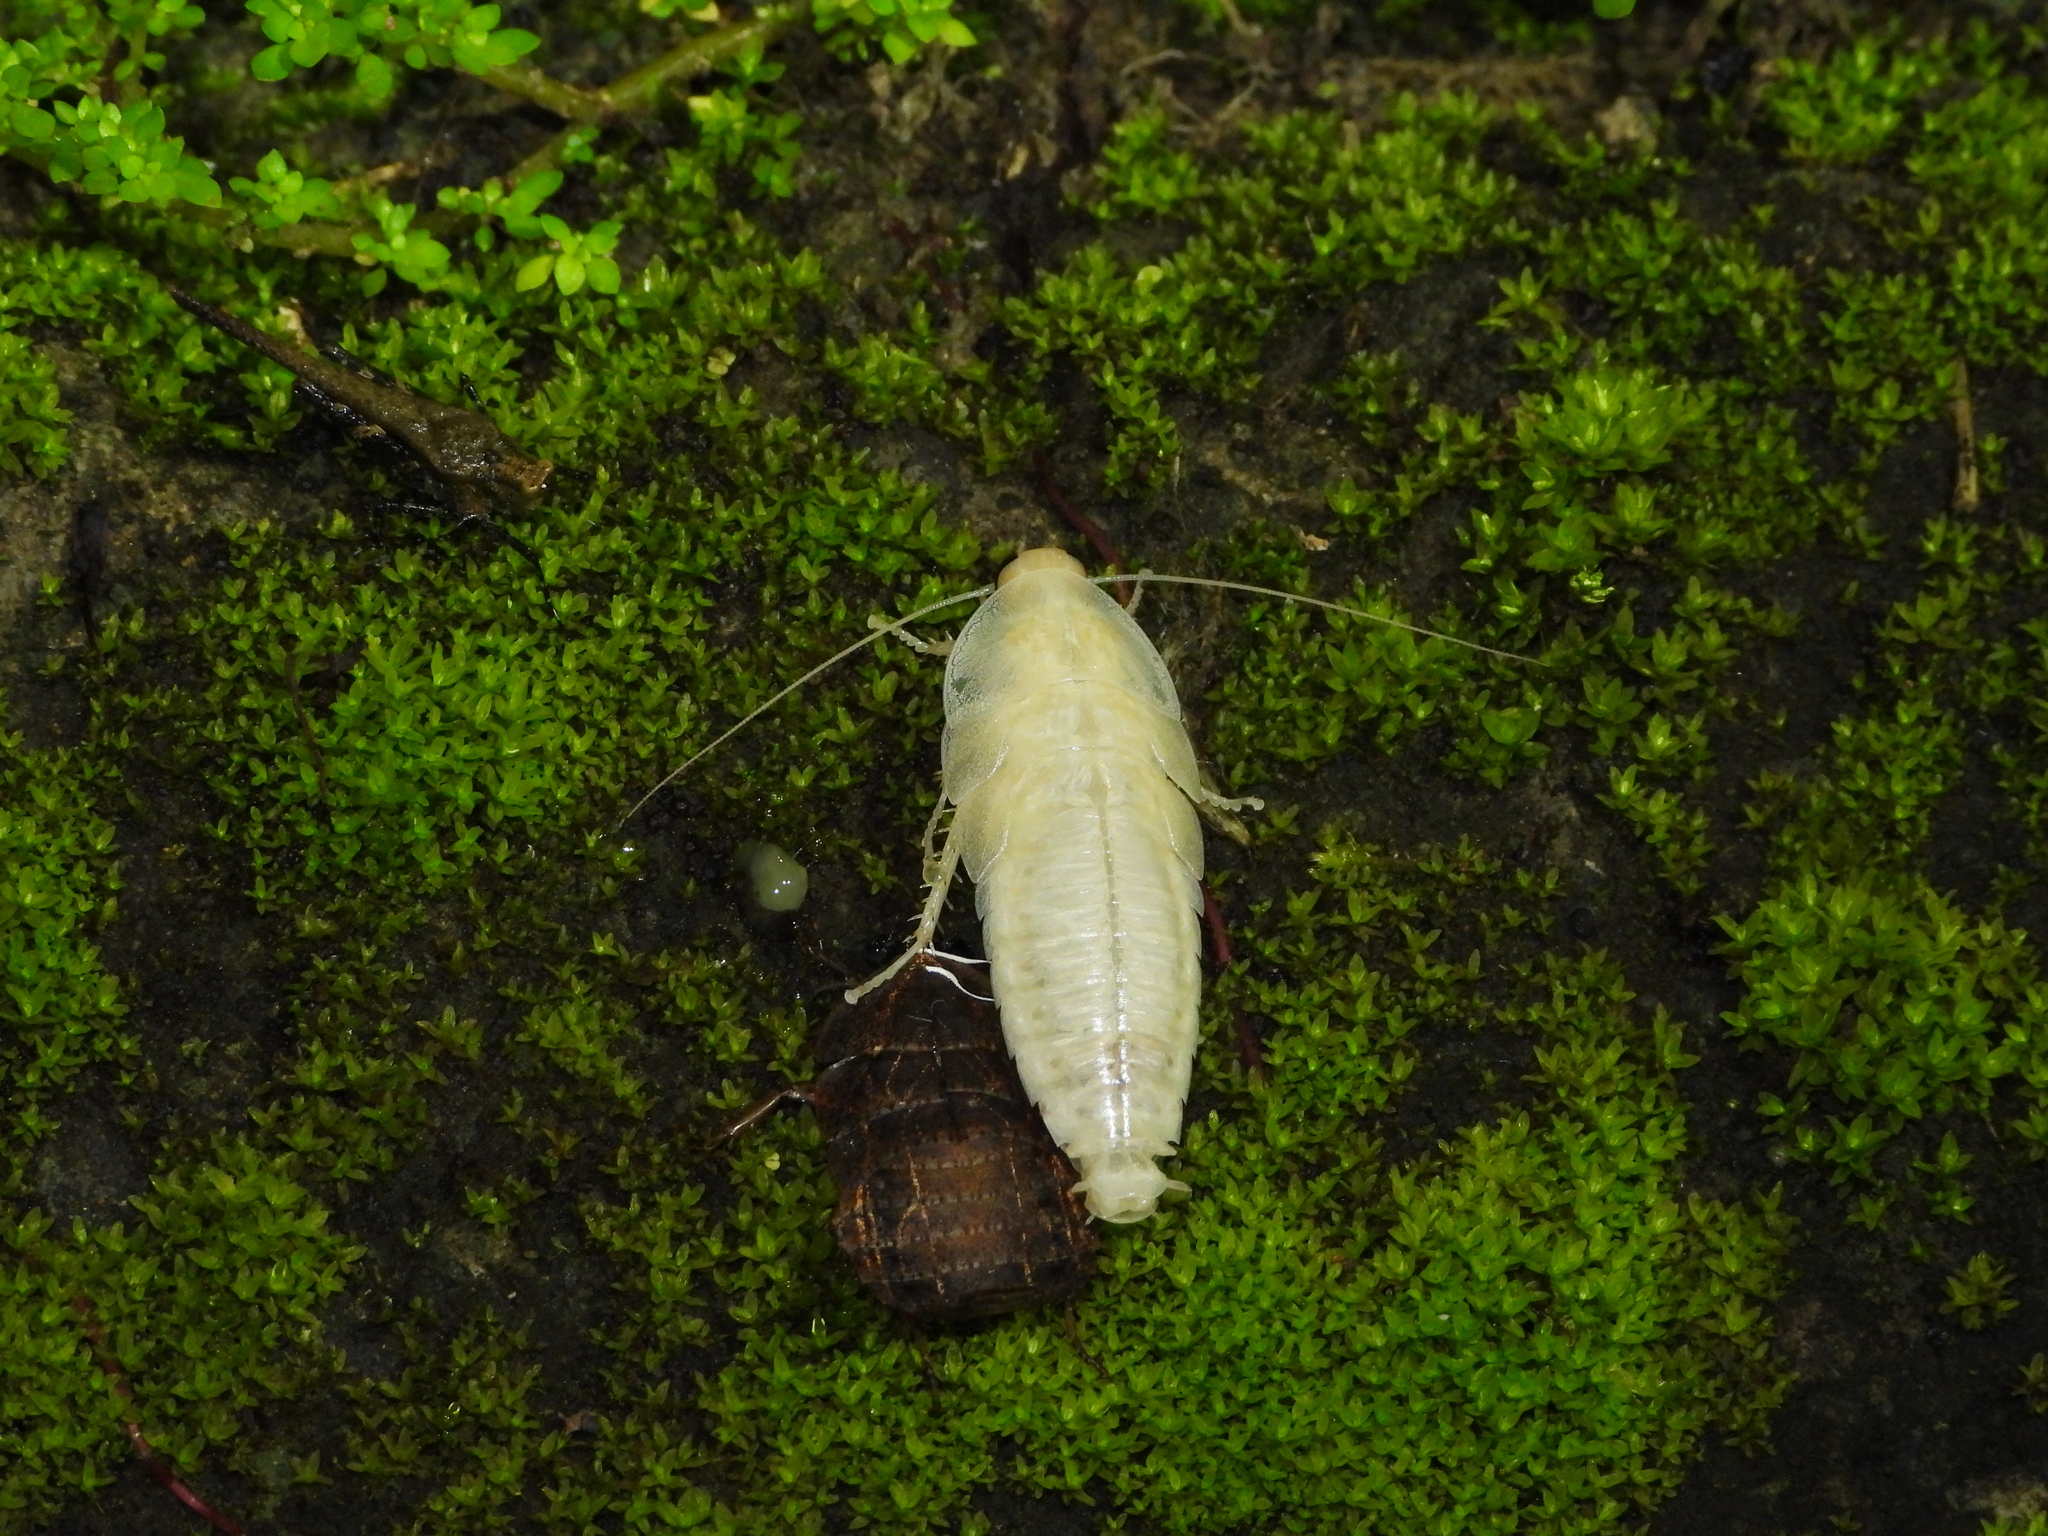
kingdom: Animalia
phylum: Arthropoda
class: Insecta
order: Blattodea
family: Blaberidae
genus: Opisthoplatia
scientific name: Opisthoplatia orientalis
